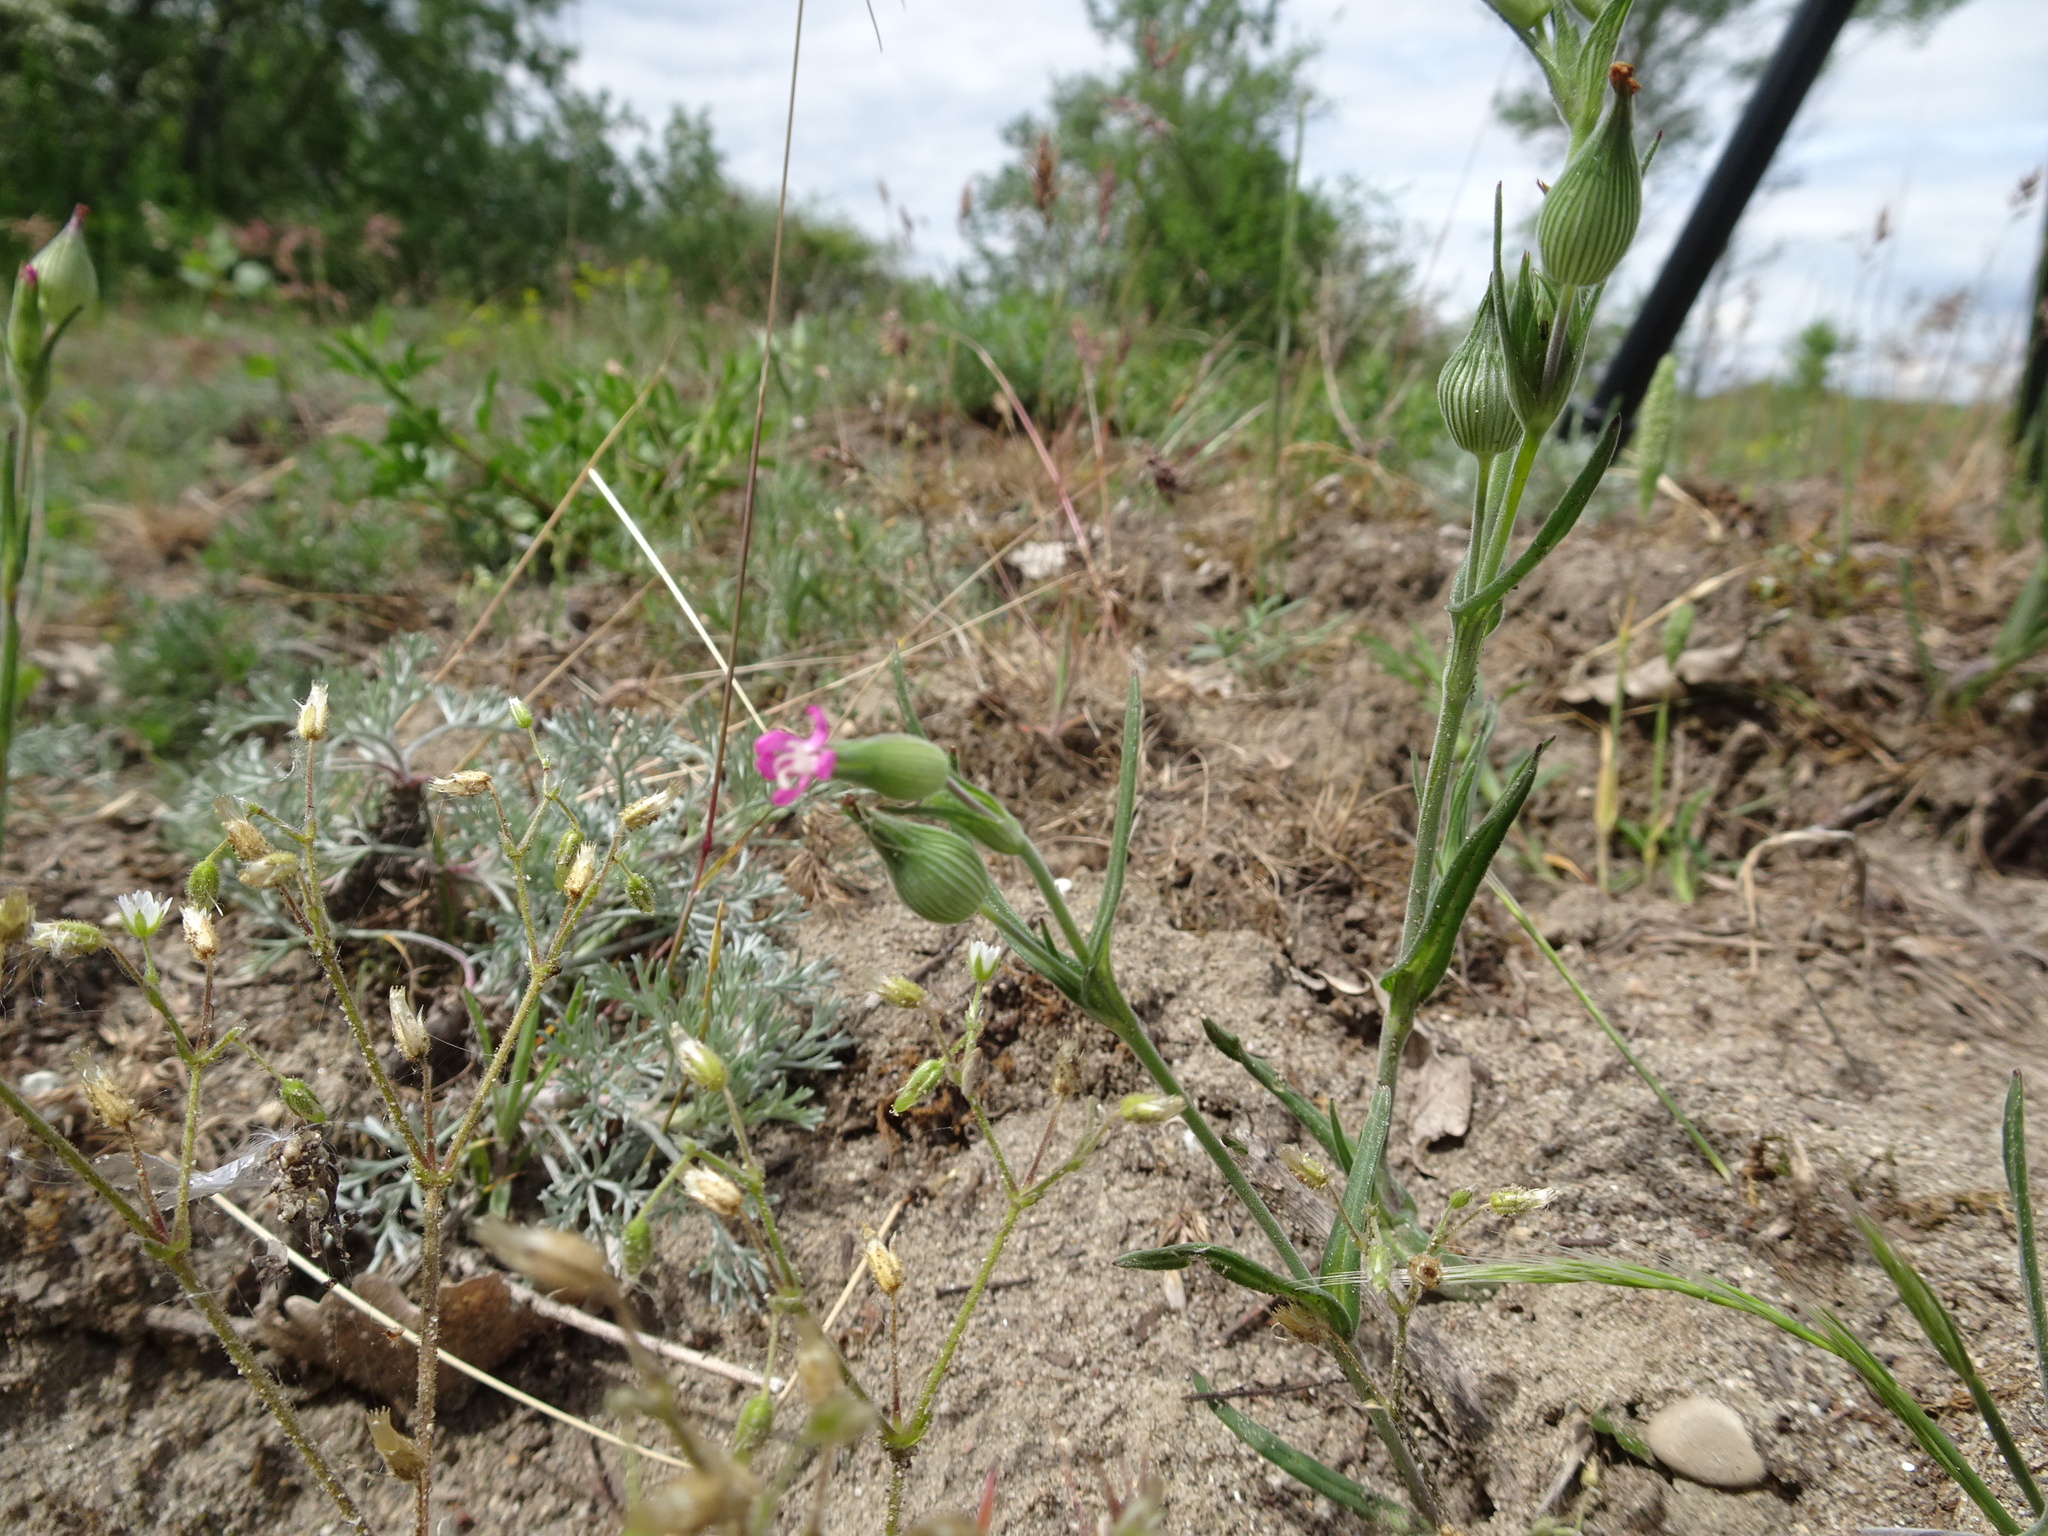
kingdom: Plantae
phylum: Tracheophyta
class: Magnoliopsida
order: Caryophyllales
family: Caryophyllaceae
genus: Silene
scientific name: Silene conica
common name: Sand catchfly
